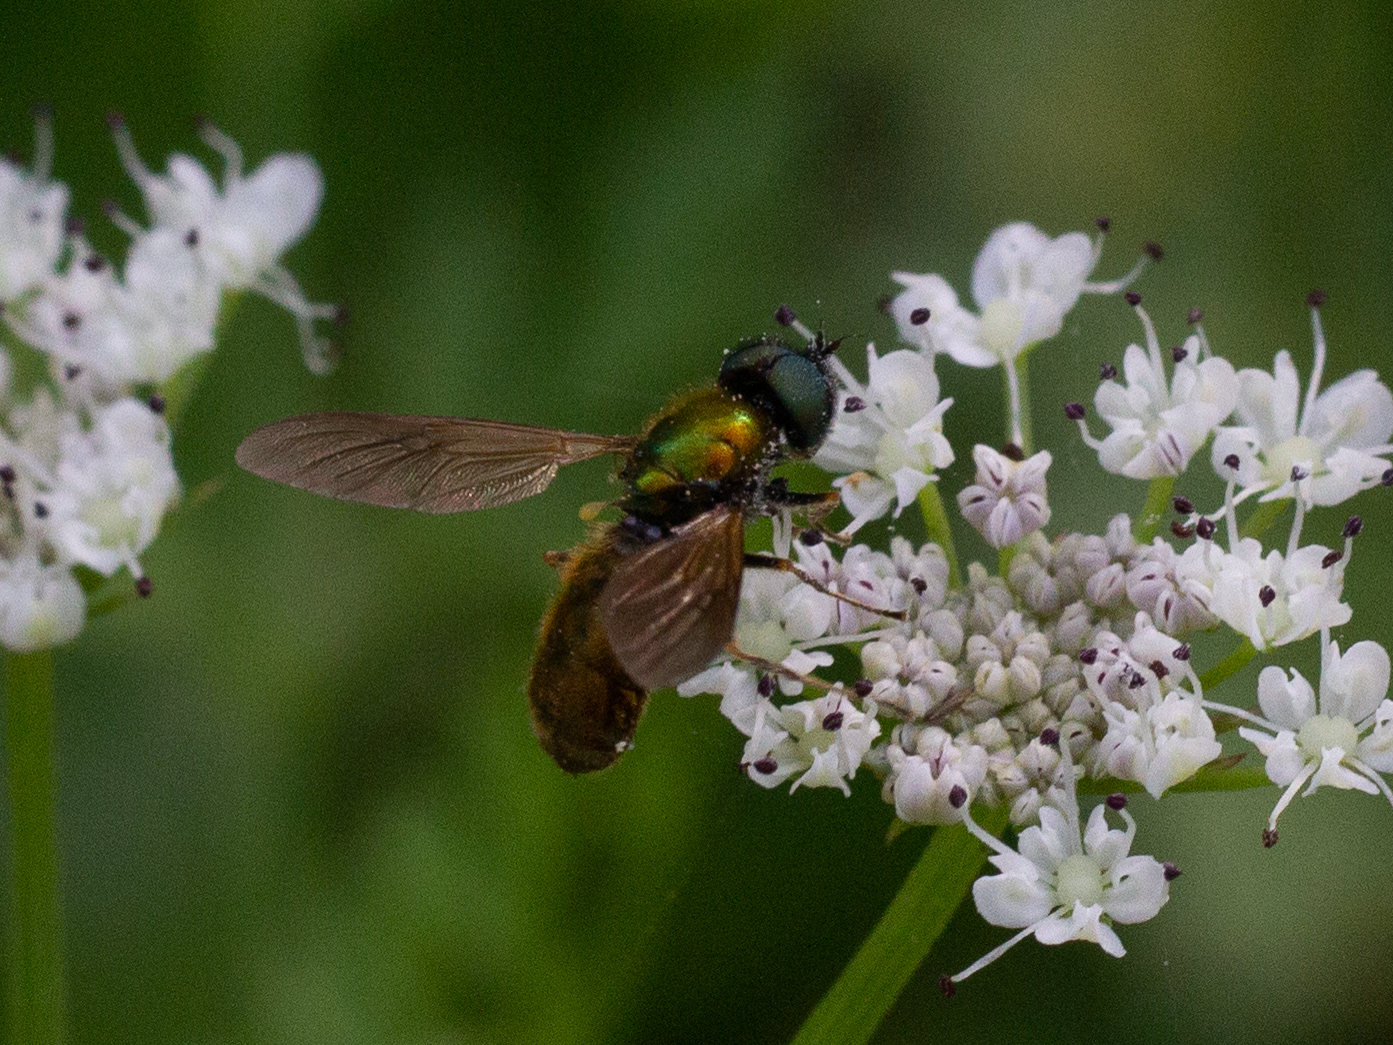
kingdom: Animalia
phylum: Arthropoda
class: Insecta
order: Diptera
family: Stratiomyidae
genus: Chloromyia
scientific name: Chloromyia formosa
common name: Soldier fly
